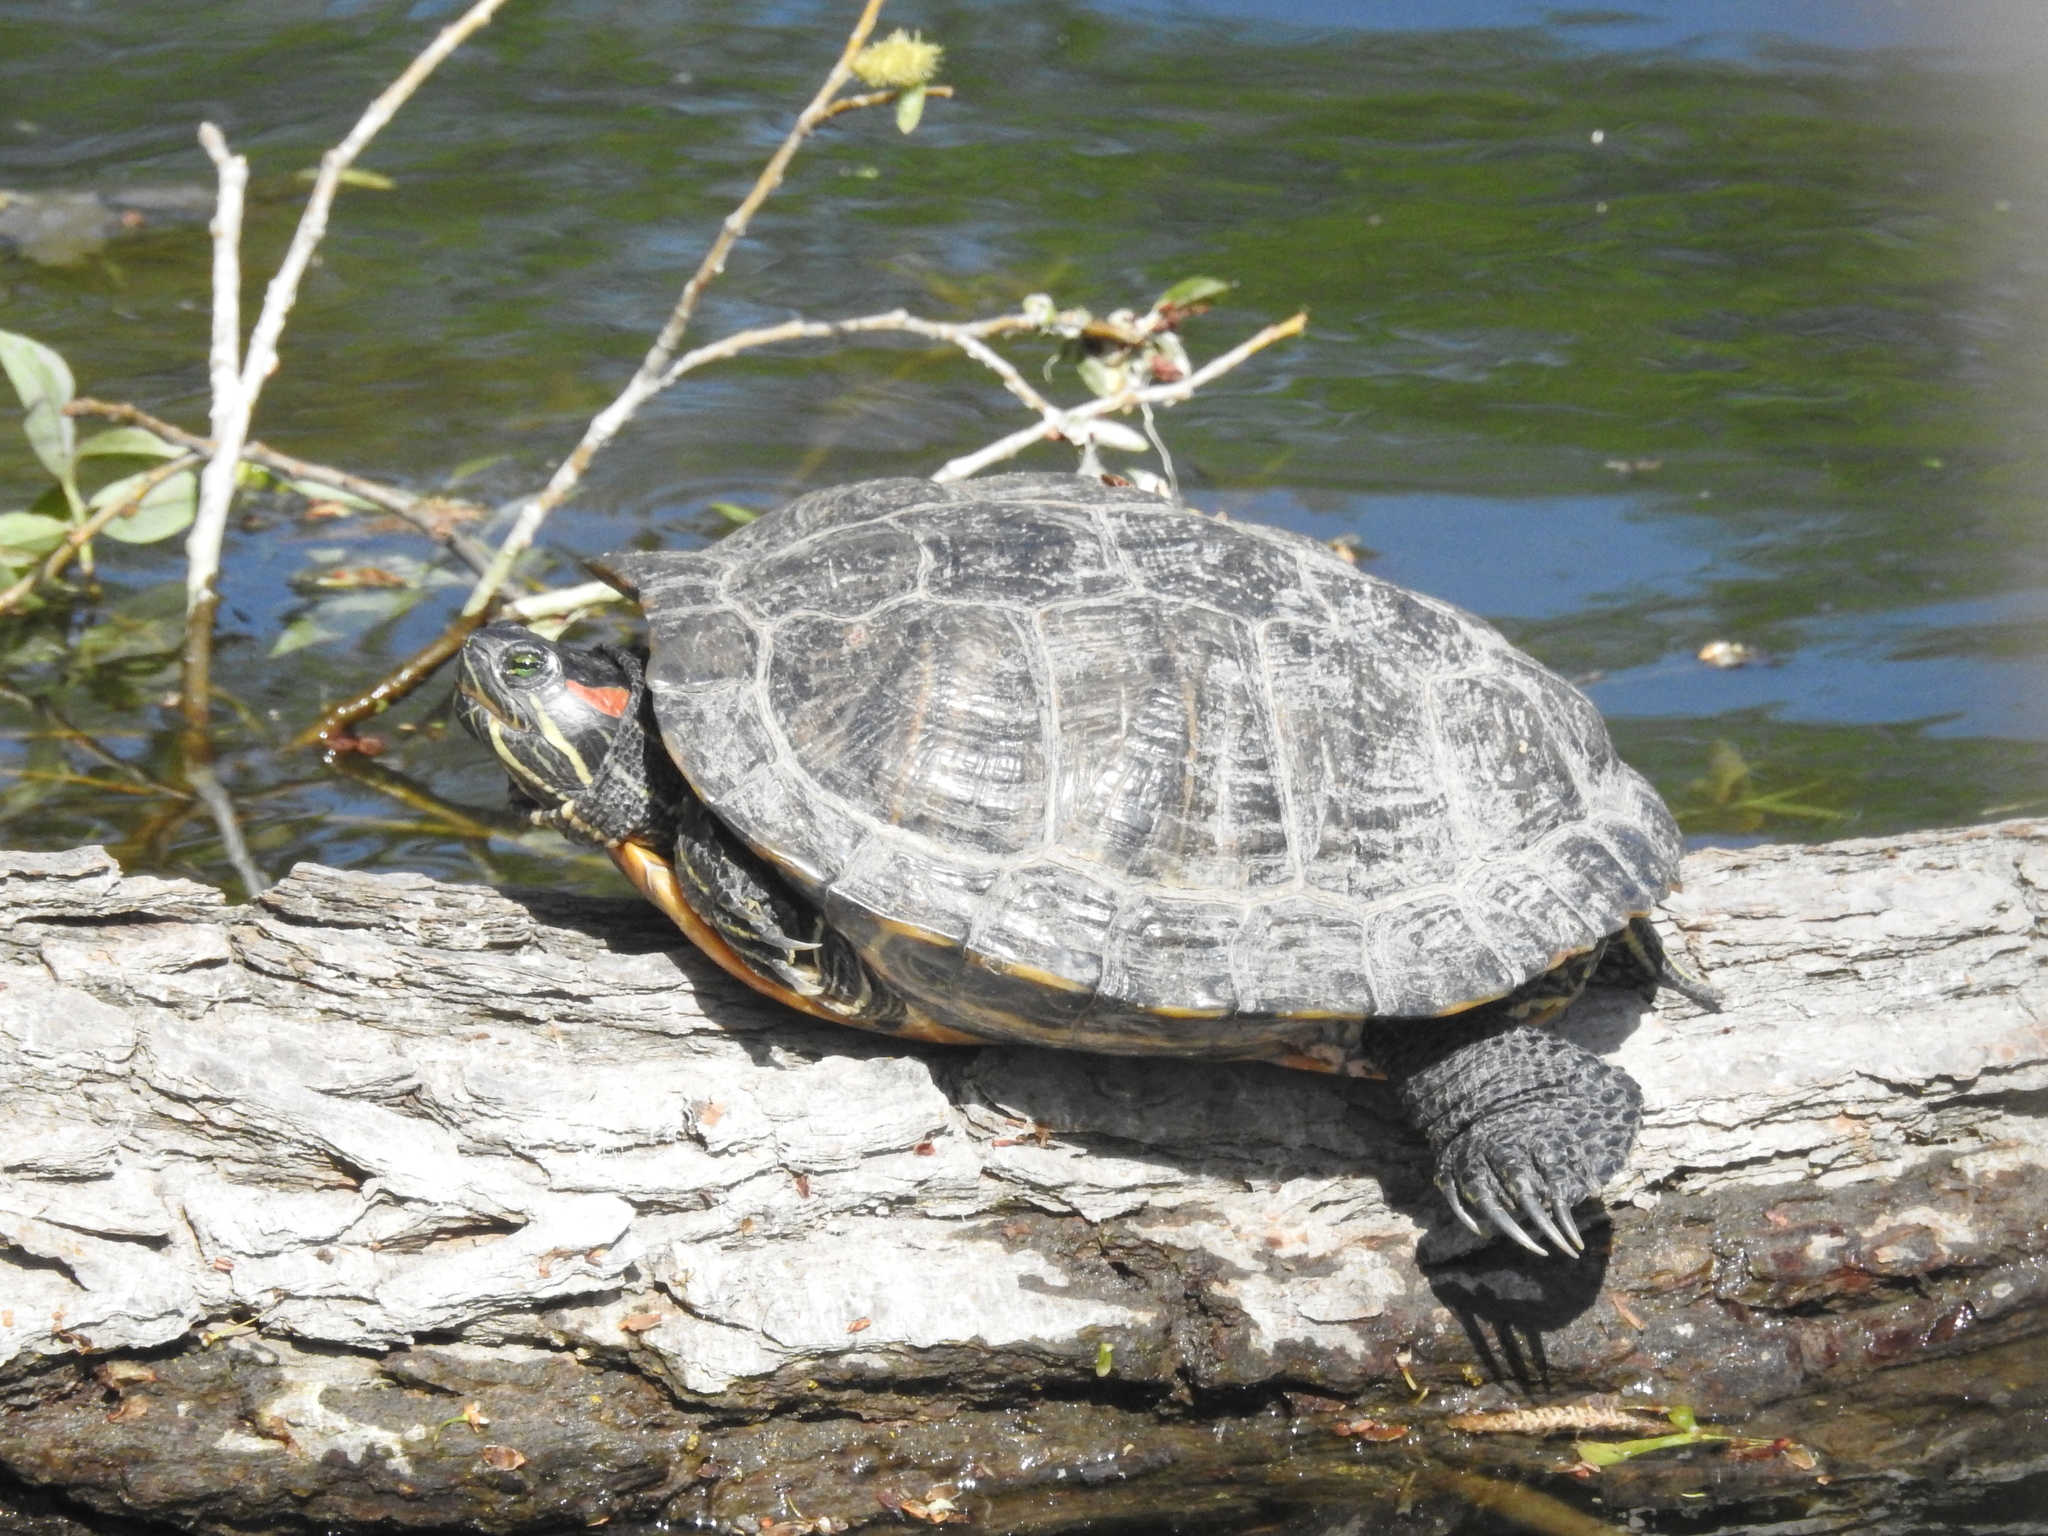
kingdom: Animalia
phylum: Chordata
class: Testudines
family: Emydidae
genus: Trachemys
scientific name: Trachemys scripta
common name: Slider
